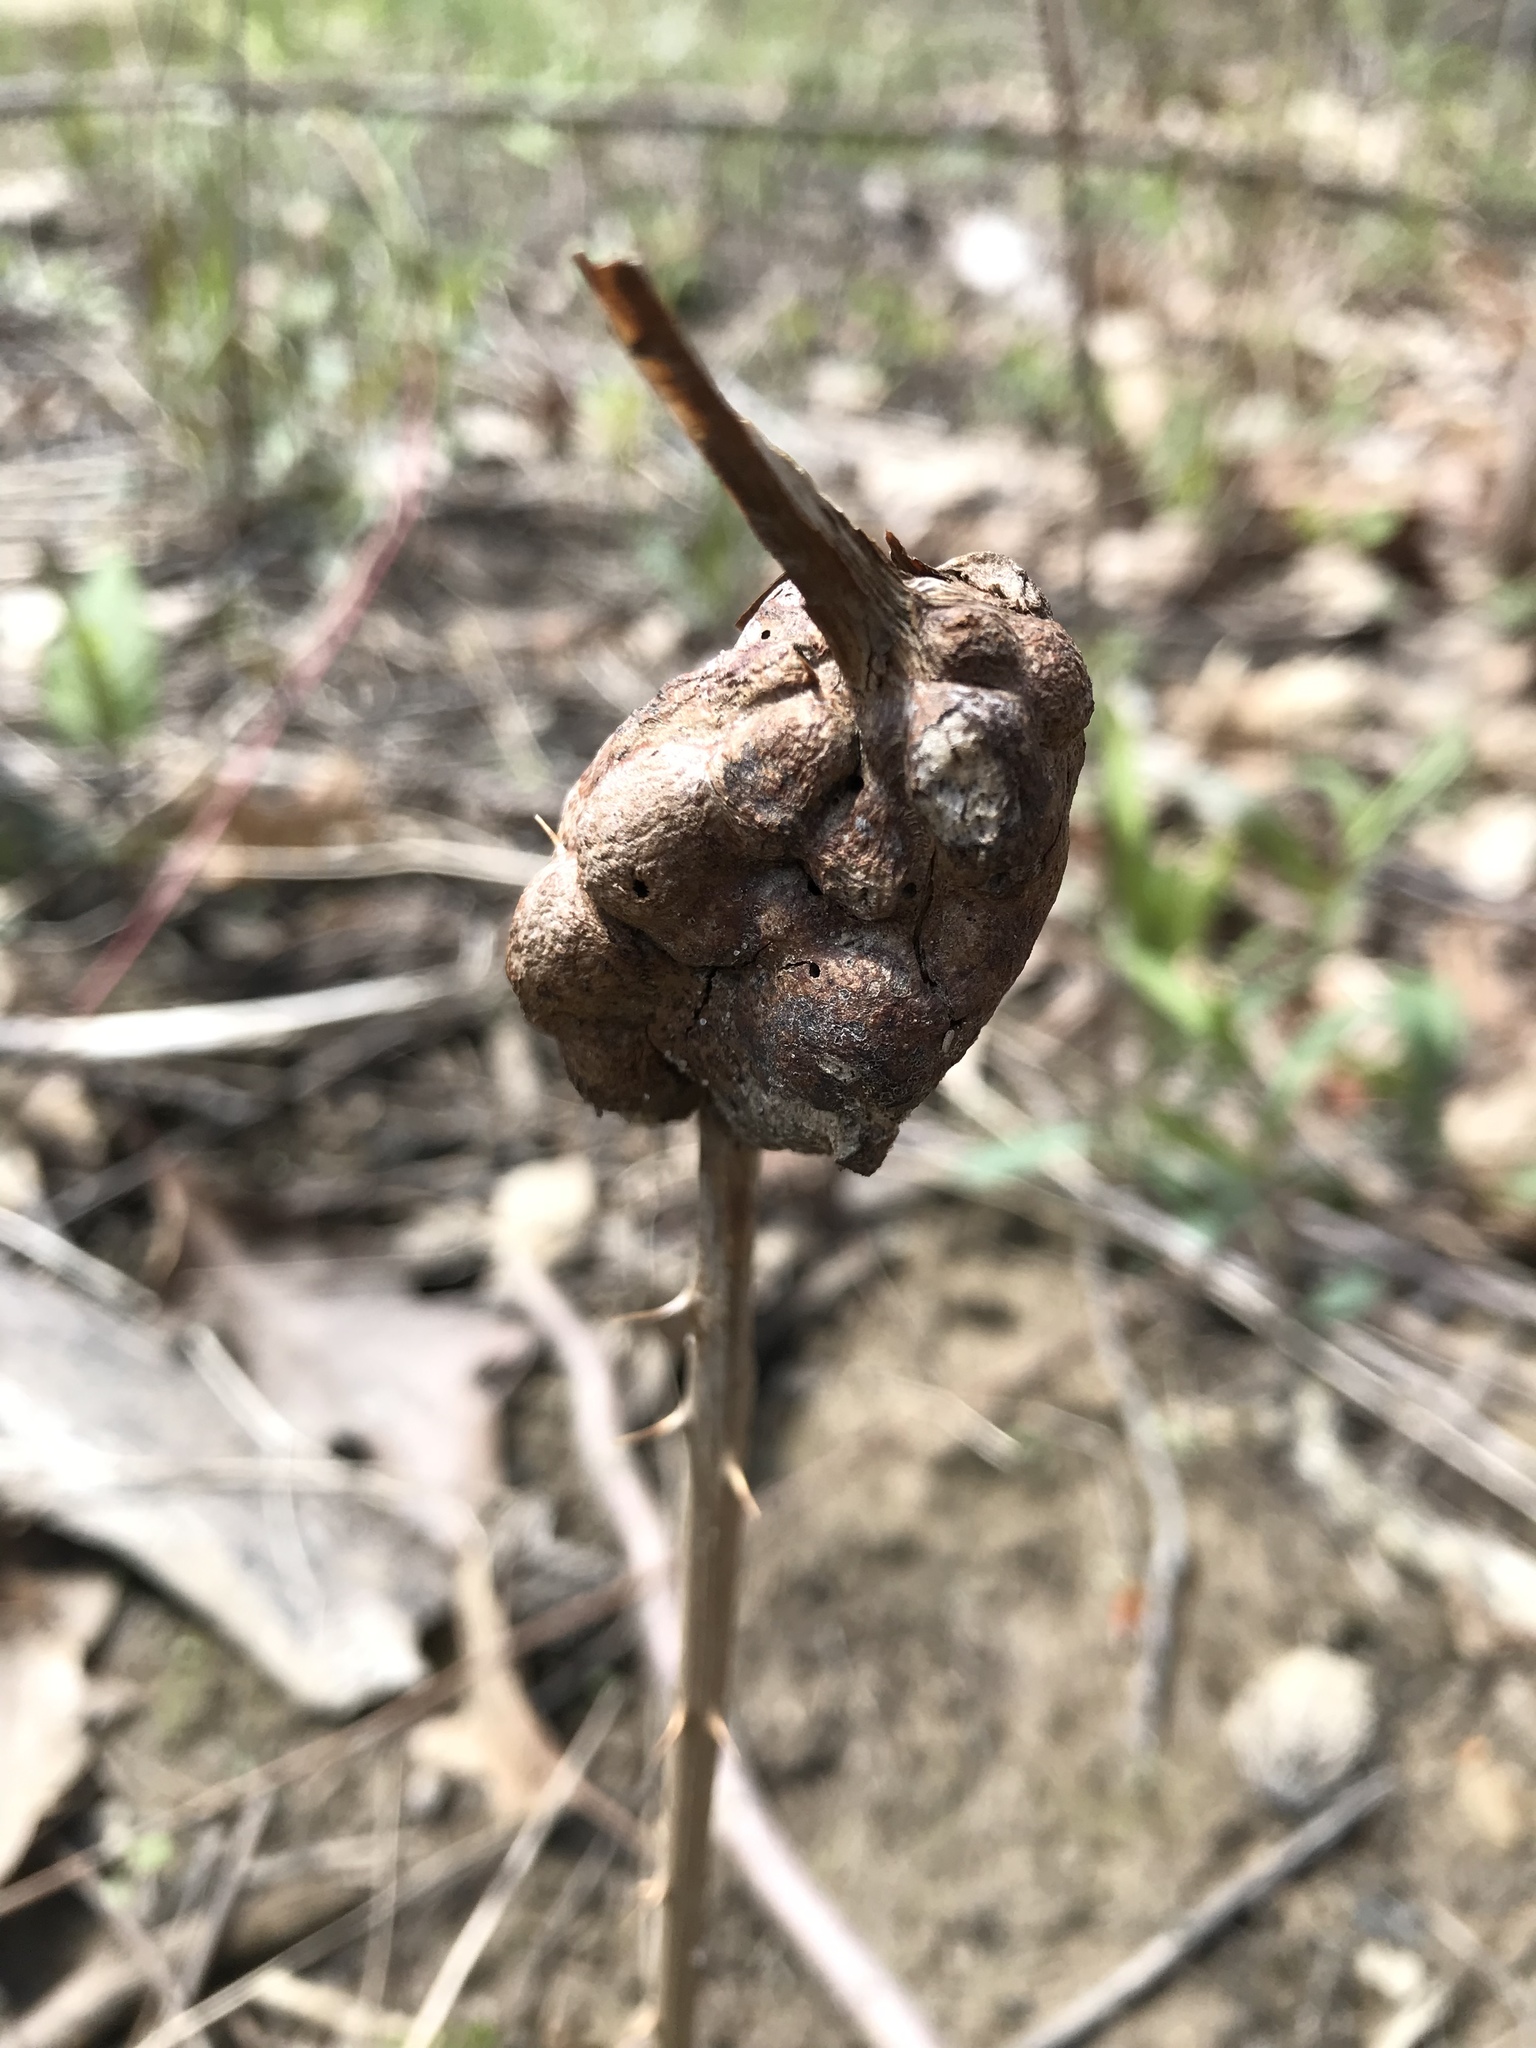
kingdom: Animalia
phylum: Arthropoda
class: Insecta
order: Hymenoptera
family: Cynipidae
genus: Diastrophus
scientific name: Diastrophus
